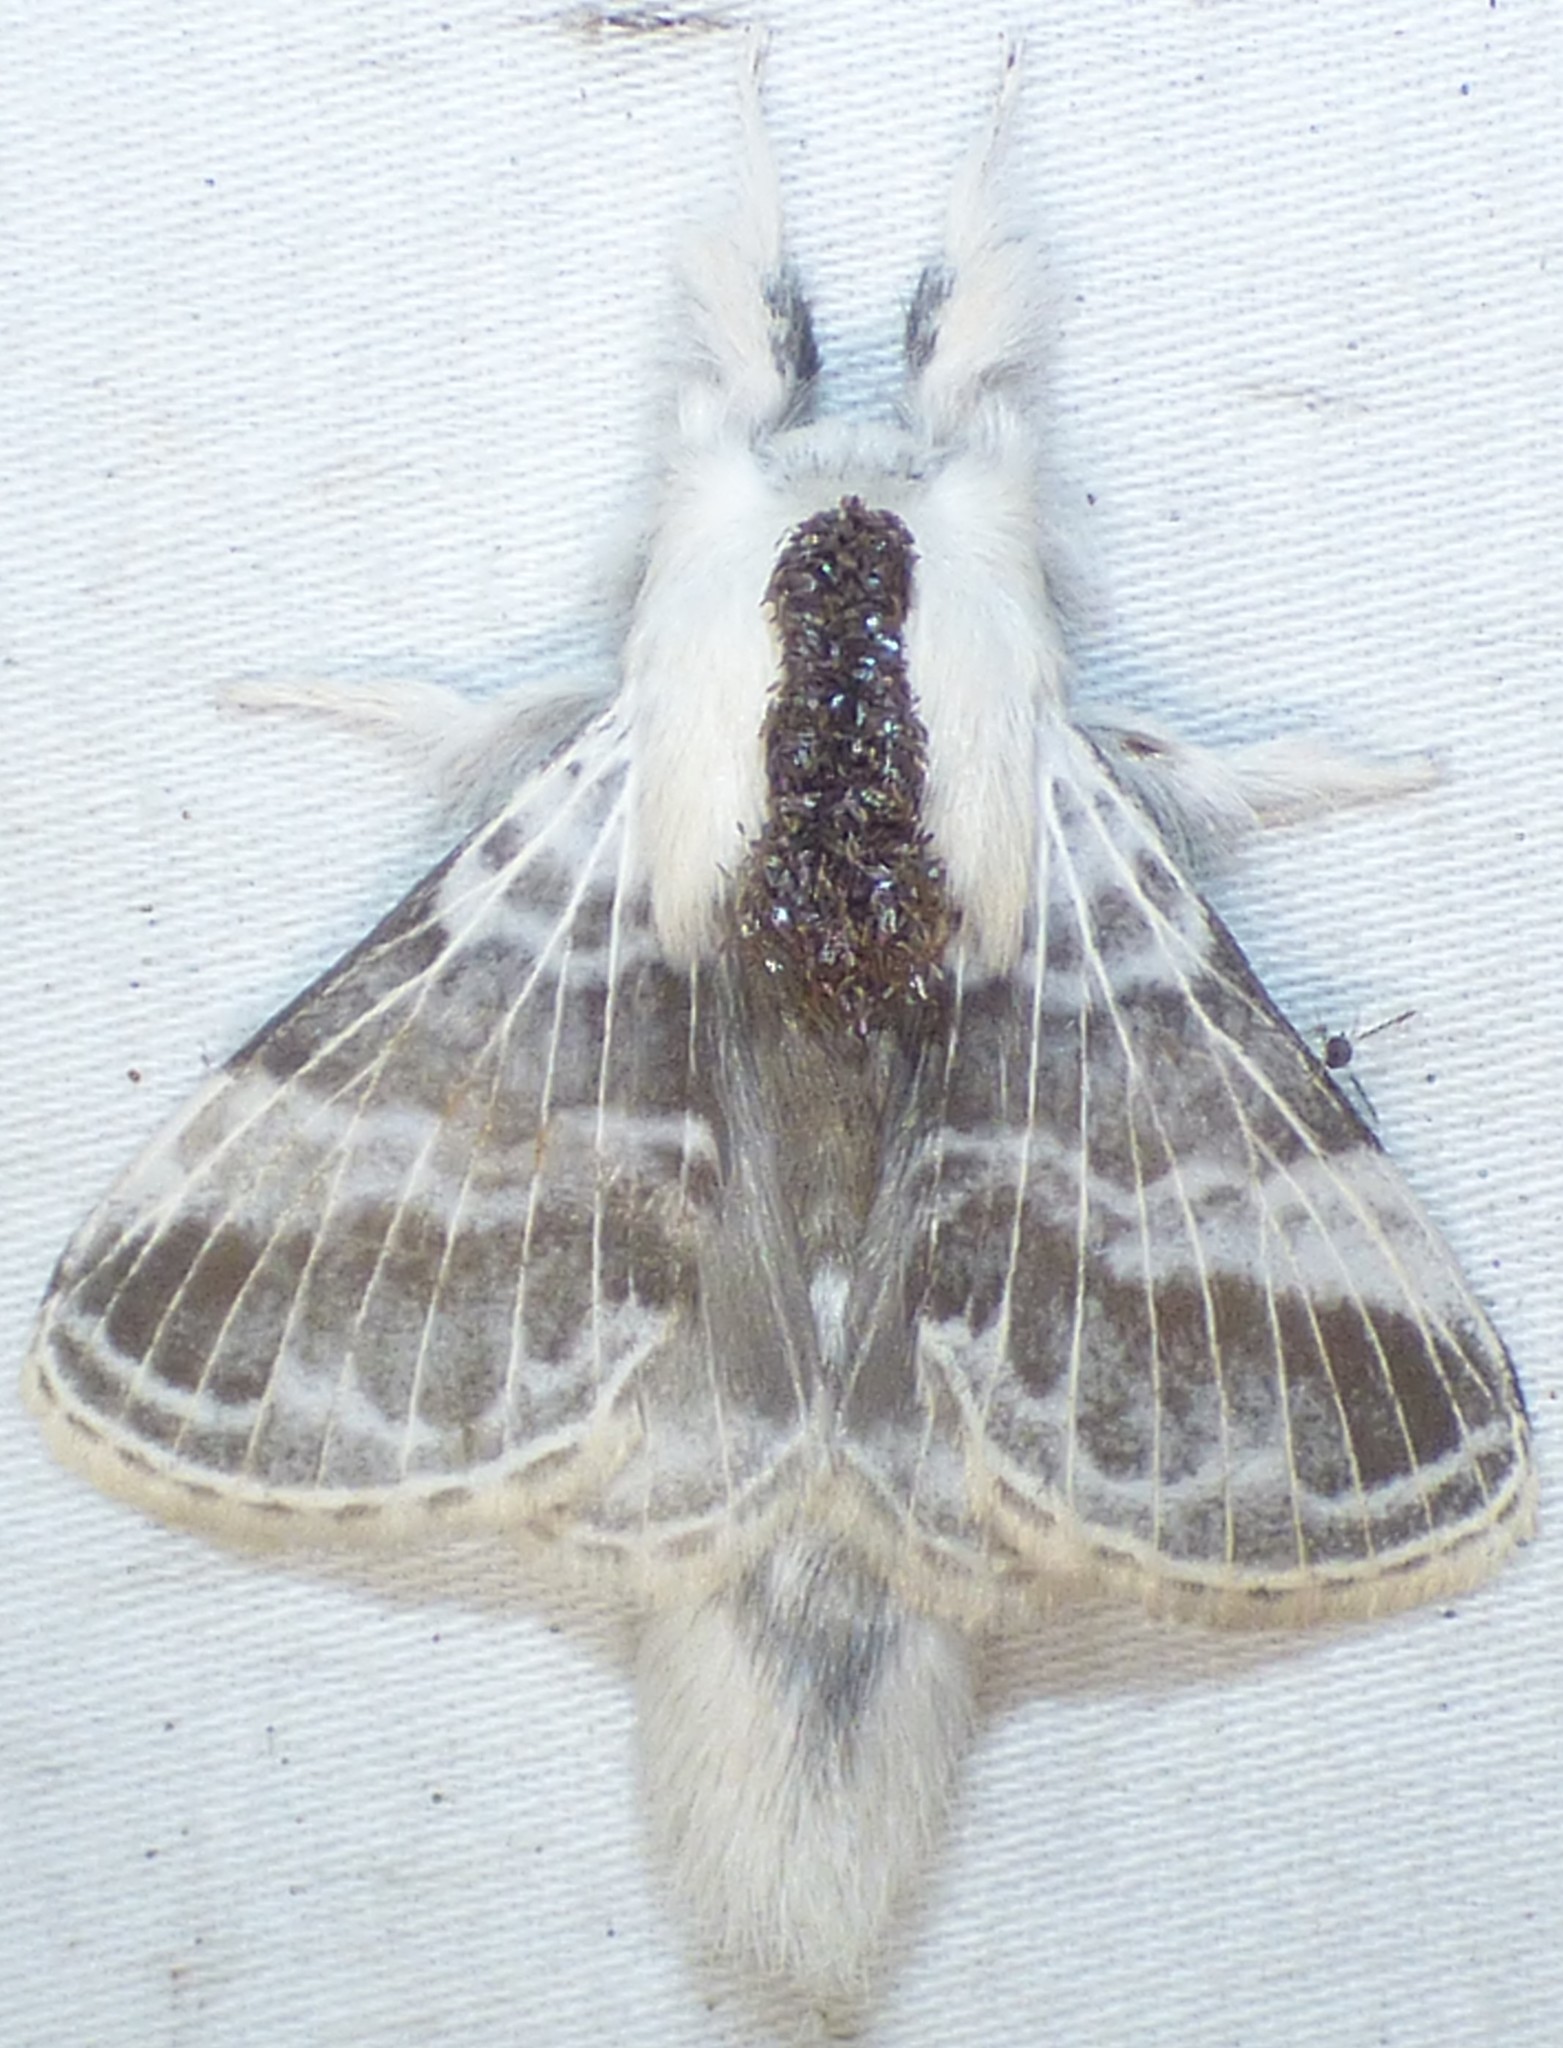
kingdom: Animalia
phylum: Arthropoda
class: Insecta
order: Lepidoptera
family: Lasiocampidae
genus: Tolype
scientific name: Tolype velleda
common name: Large tolype moth
